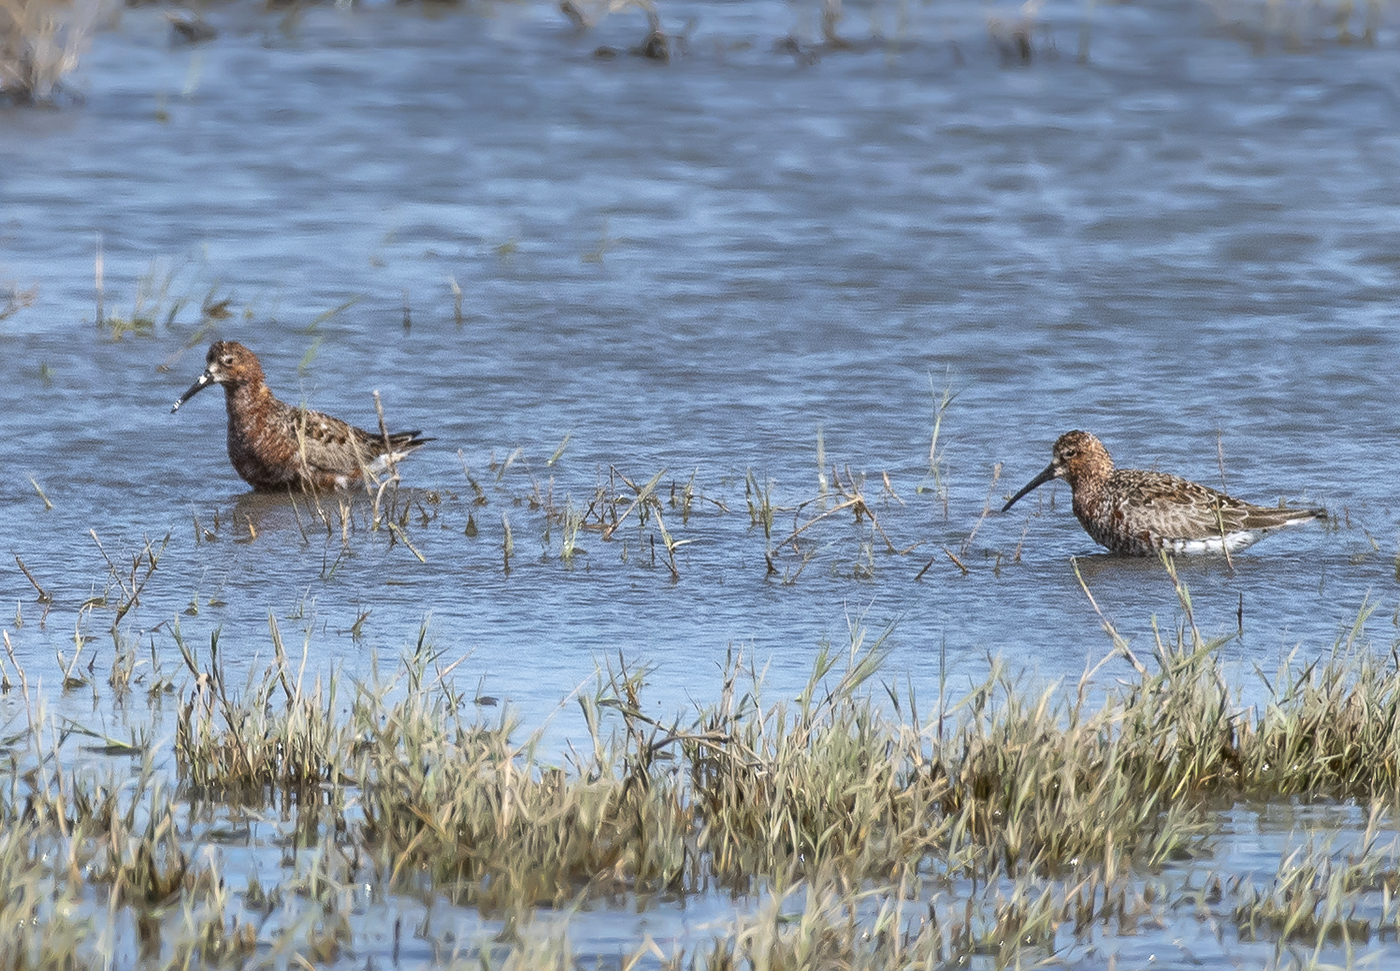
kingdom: Animalia
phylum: Chordata
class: Aves
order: Charadriiformes
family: Scolopacidae
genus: Calidris
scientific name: Calidris ferruginea
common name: Curlew sandpiper
